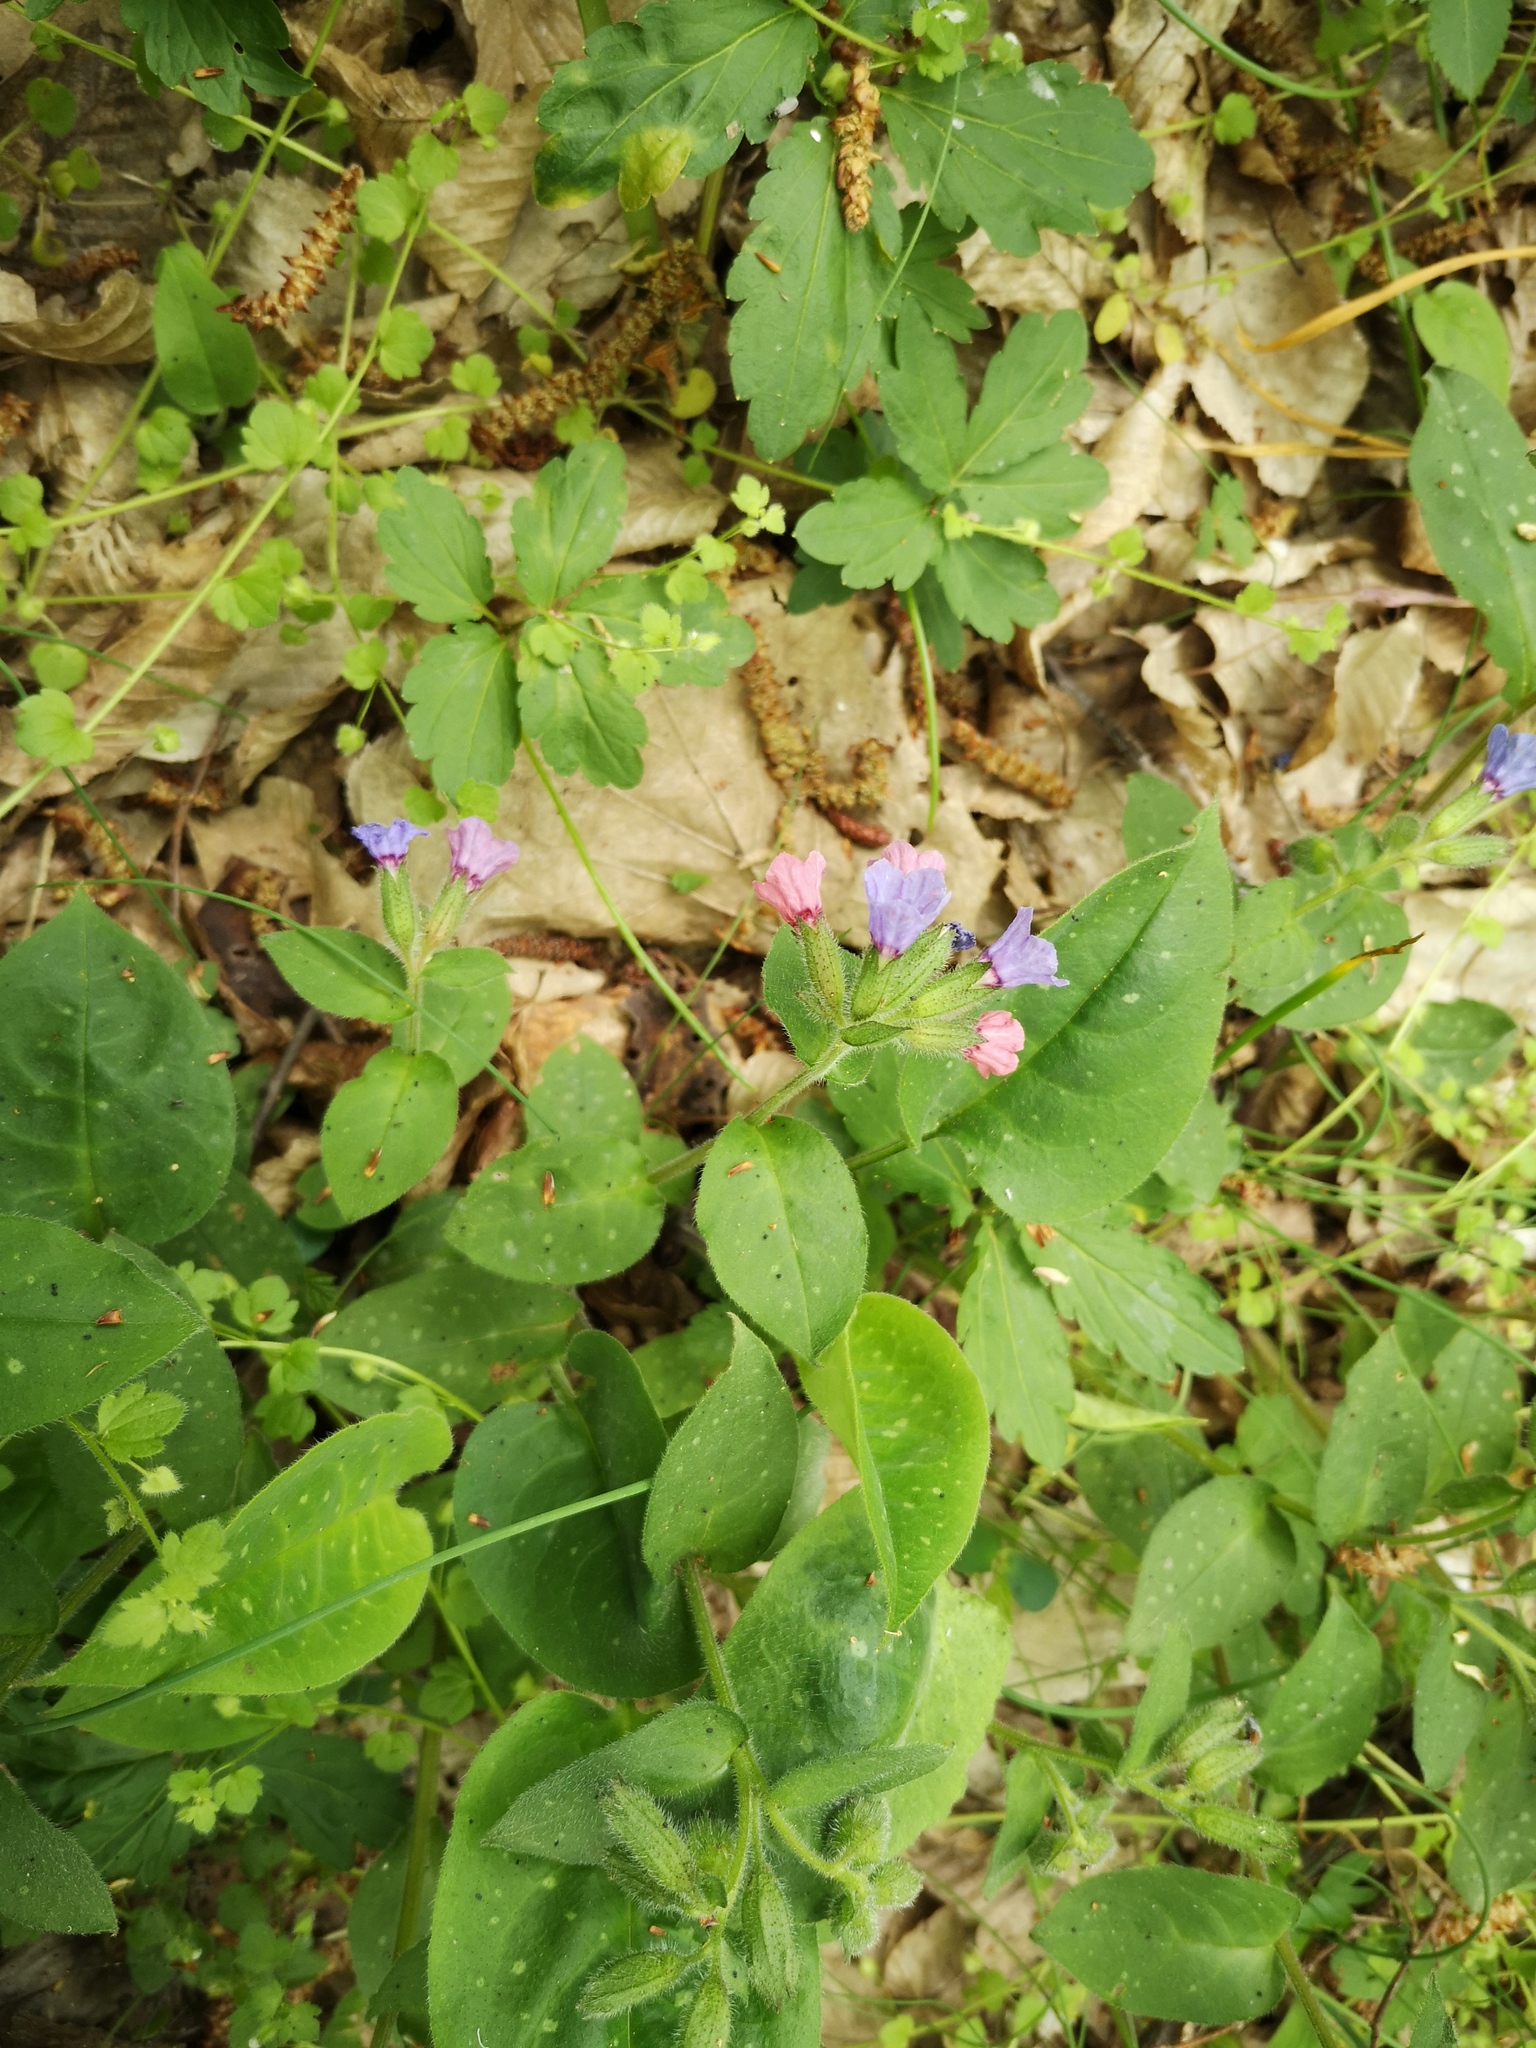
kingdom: Plantae
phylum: Tracheophyta
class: Magnoliopsida
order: Boraginales
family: Boraginaceae
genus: Pulmonaria
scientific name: Pulmonaria officinalis
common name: Lungwort
